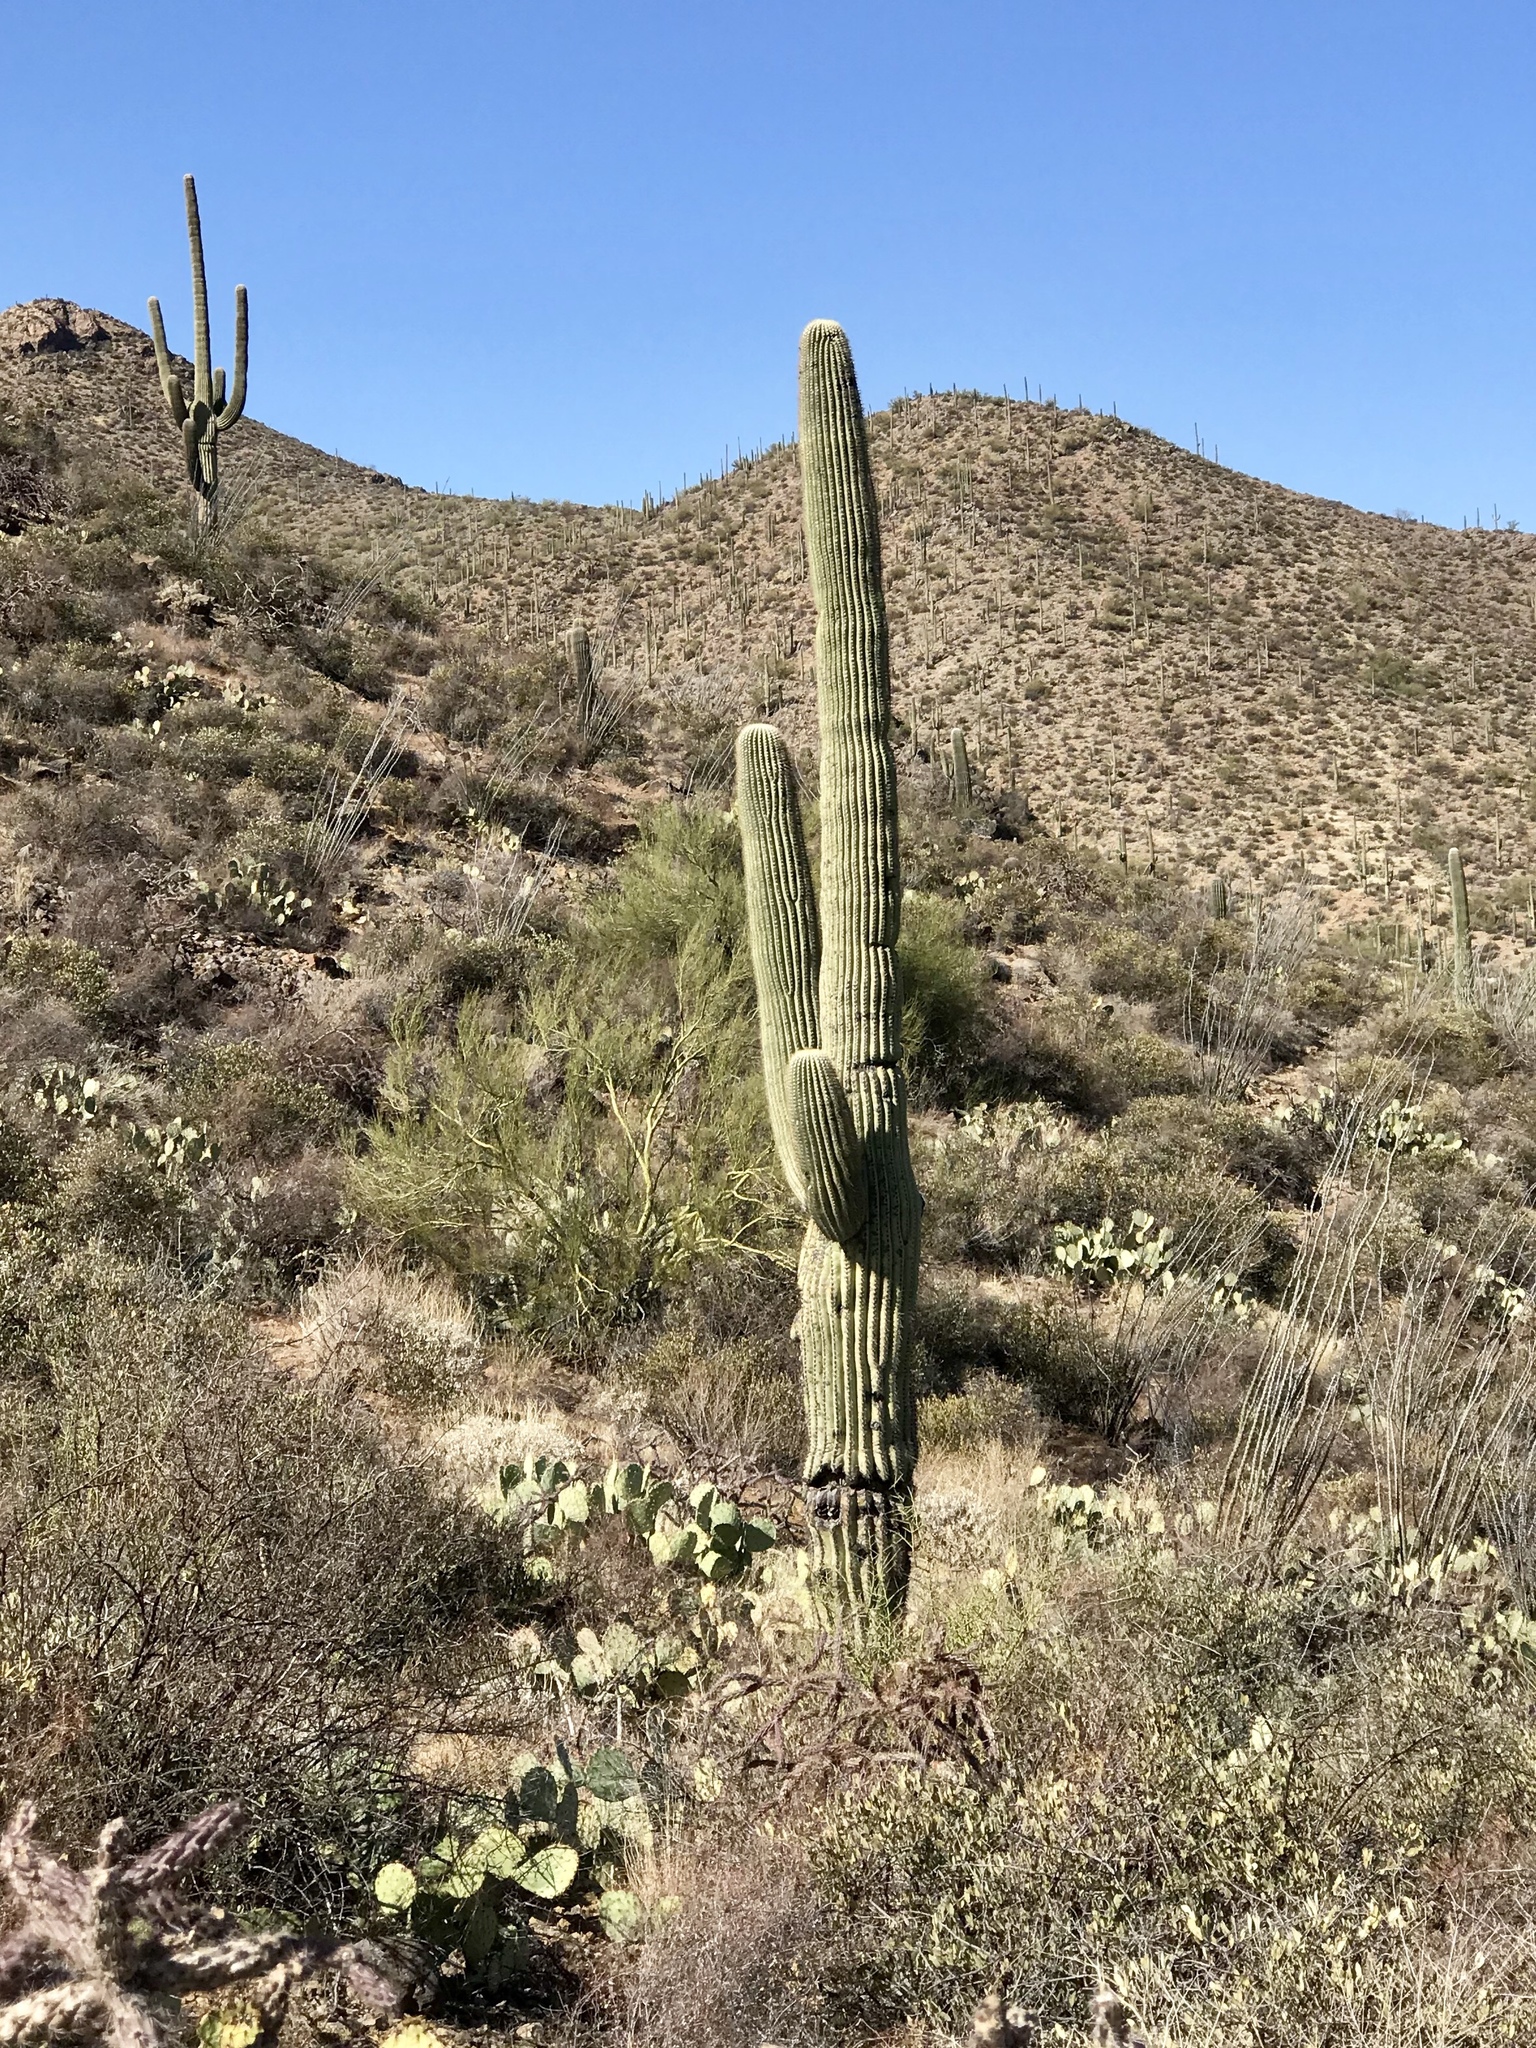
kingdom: Plantae
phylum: Tracheophyta
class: Magnoliopsida
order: Caryophyllales
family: Cactaceae
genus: Carnegiea
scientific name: Carnegiea gigantea
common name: Saguaro
